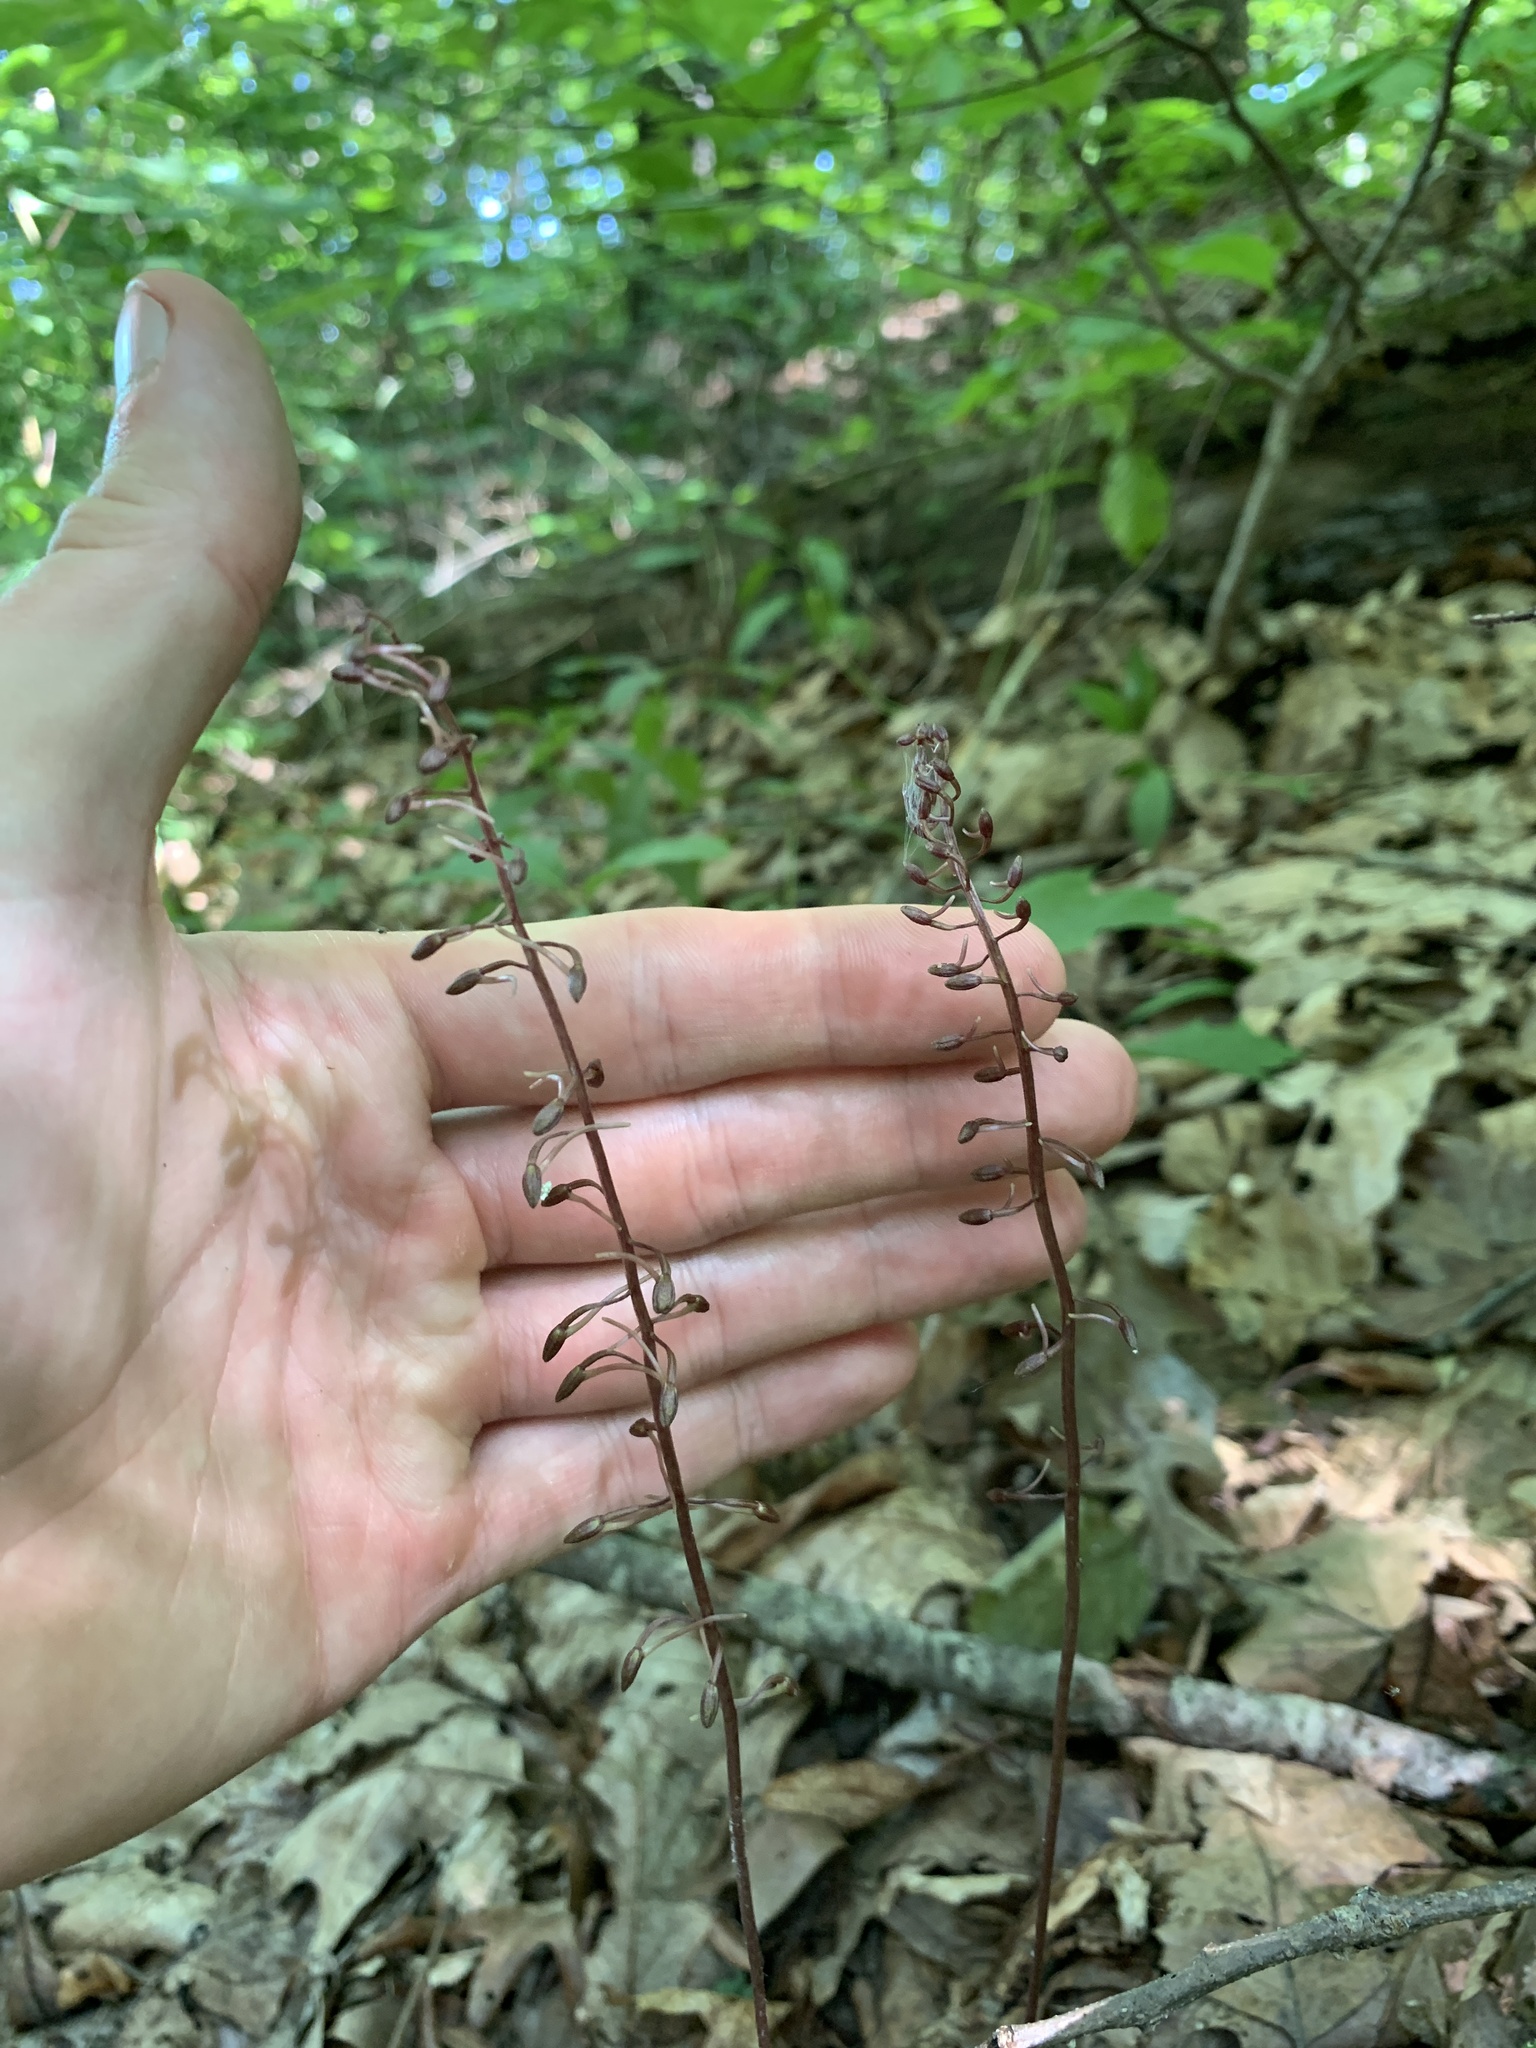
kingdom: Plantae
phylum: Tracheophyta
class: Liliopsida
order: Asparagales
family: Orchidaceae
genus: Tipularia
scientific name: Tipularia discolor
